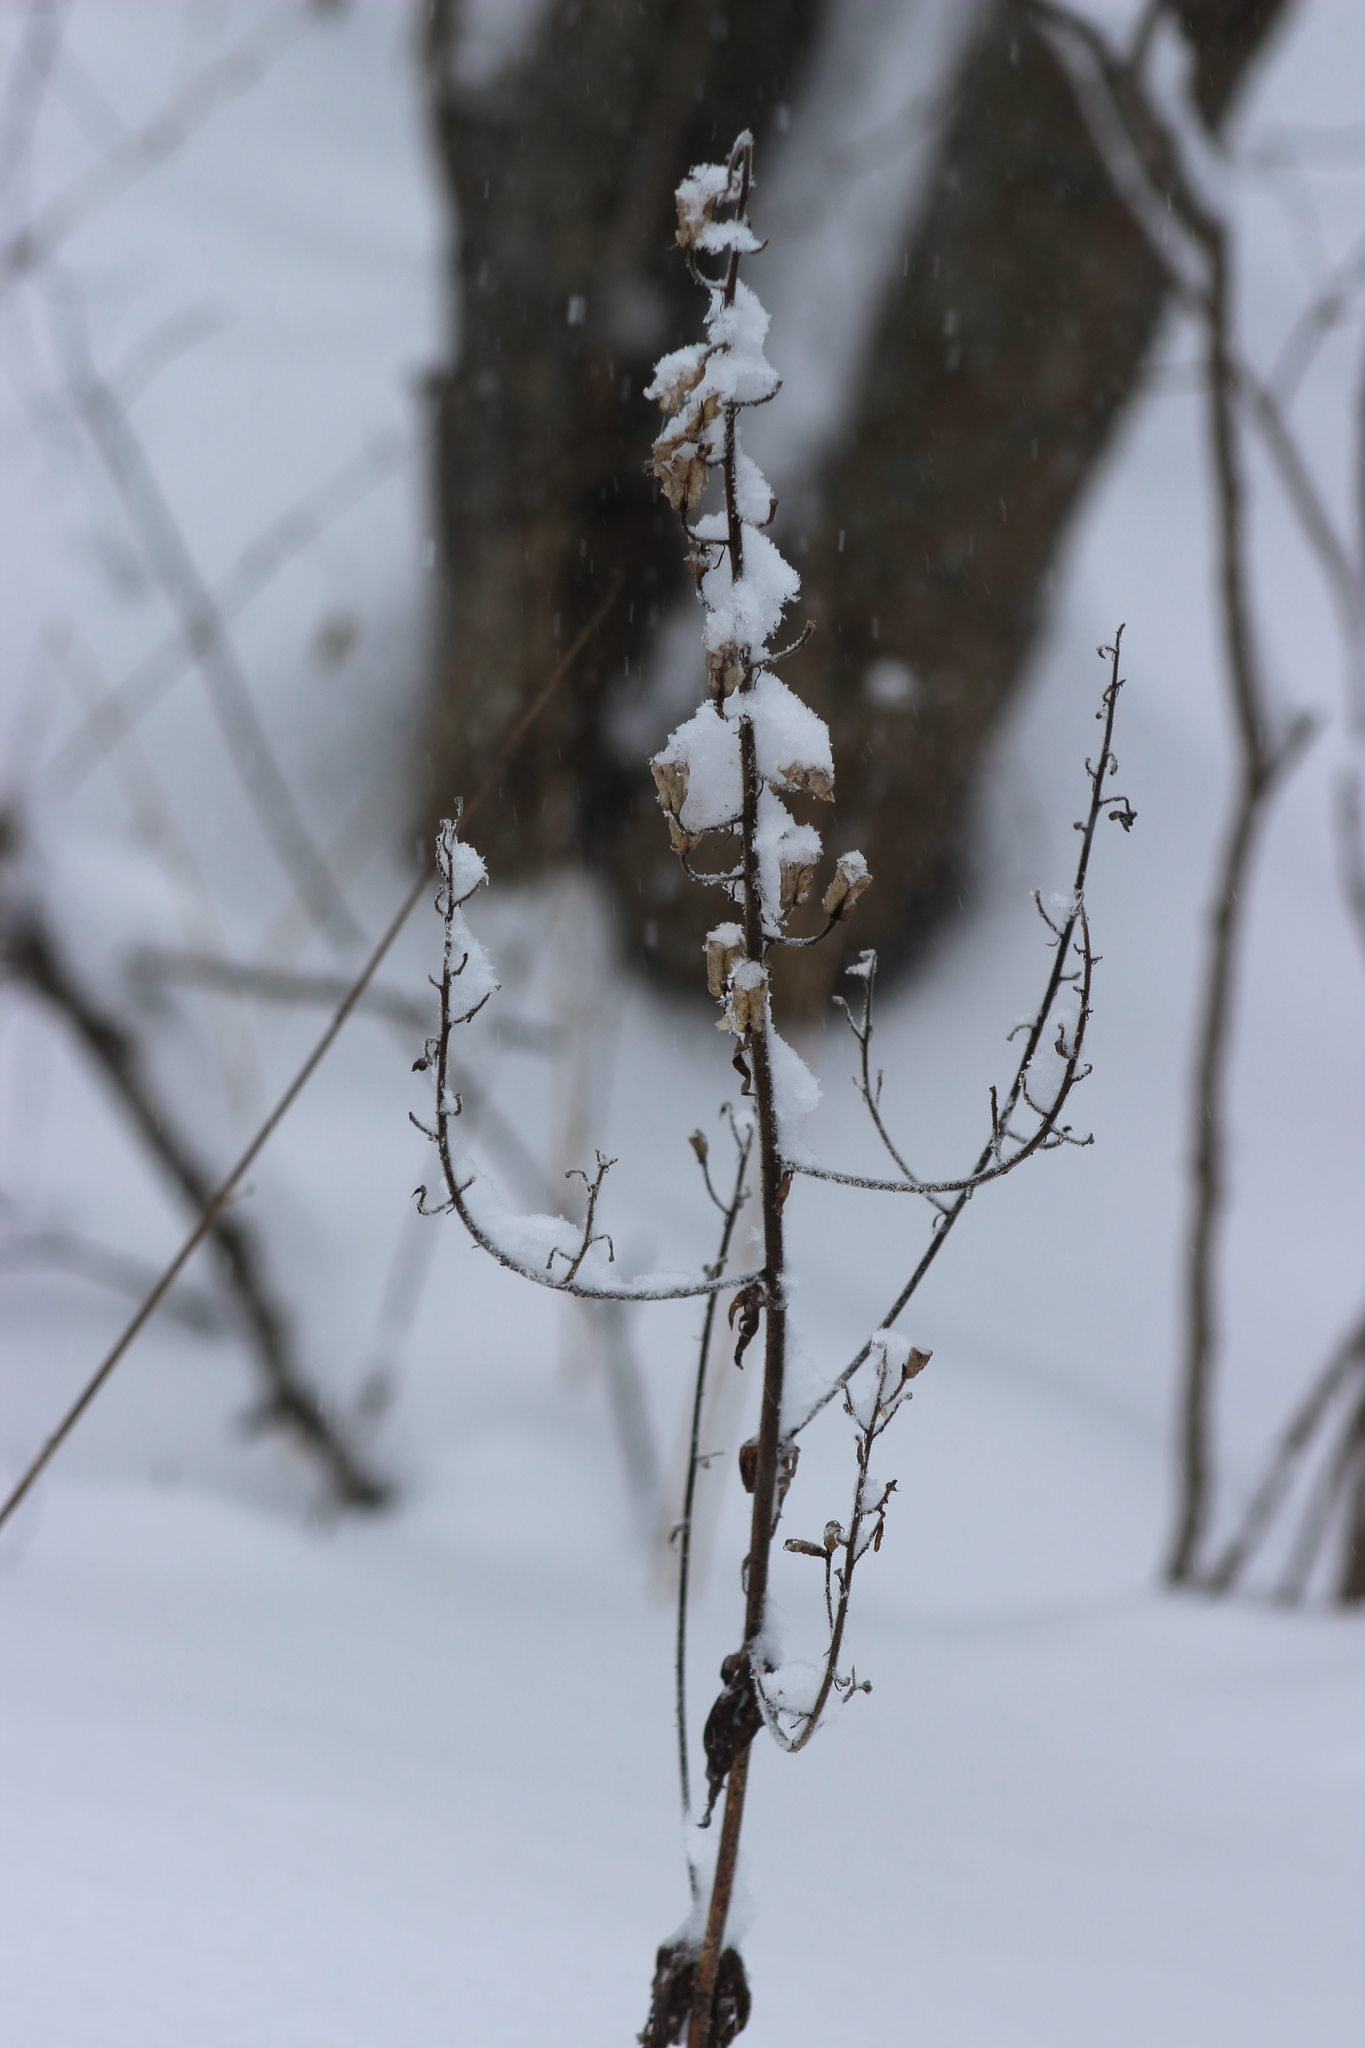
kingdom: Plantae
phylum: Tracheophyta
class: Magnoliopsida
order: Ranunculales
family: Ranunculaceae
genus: Aconitum
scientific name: Aconitum septentrionale
